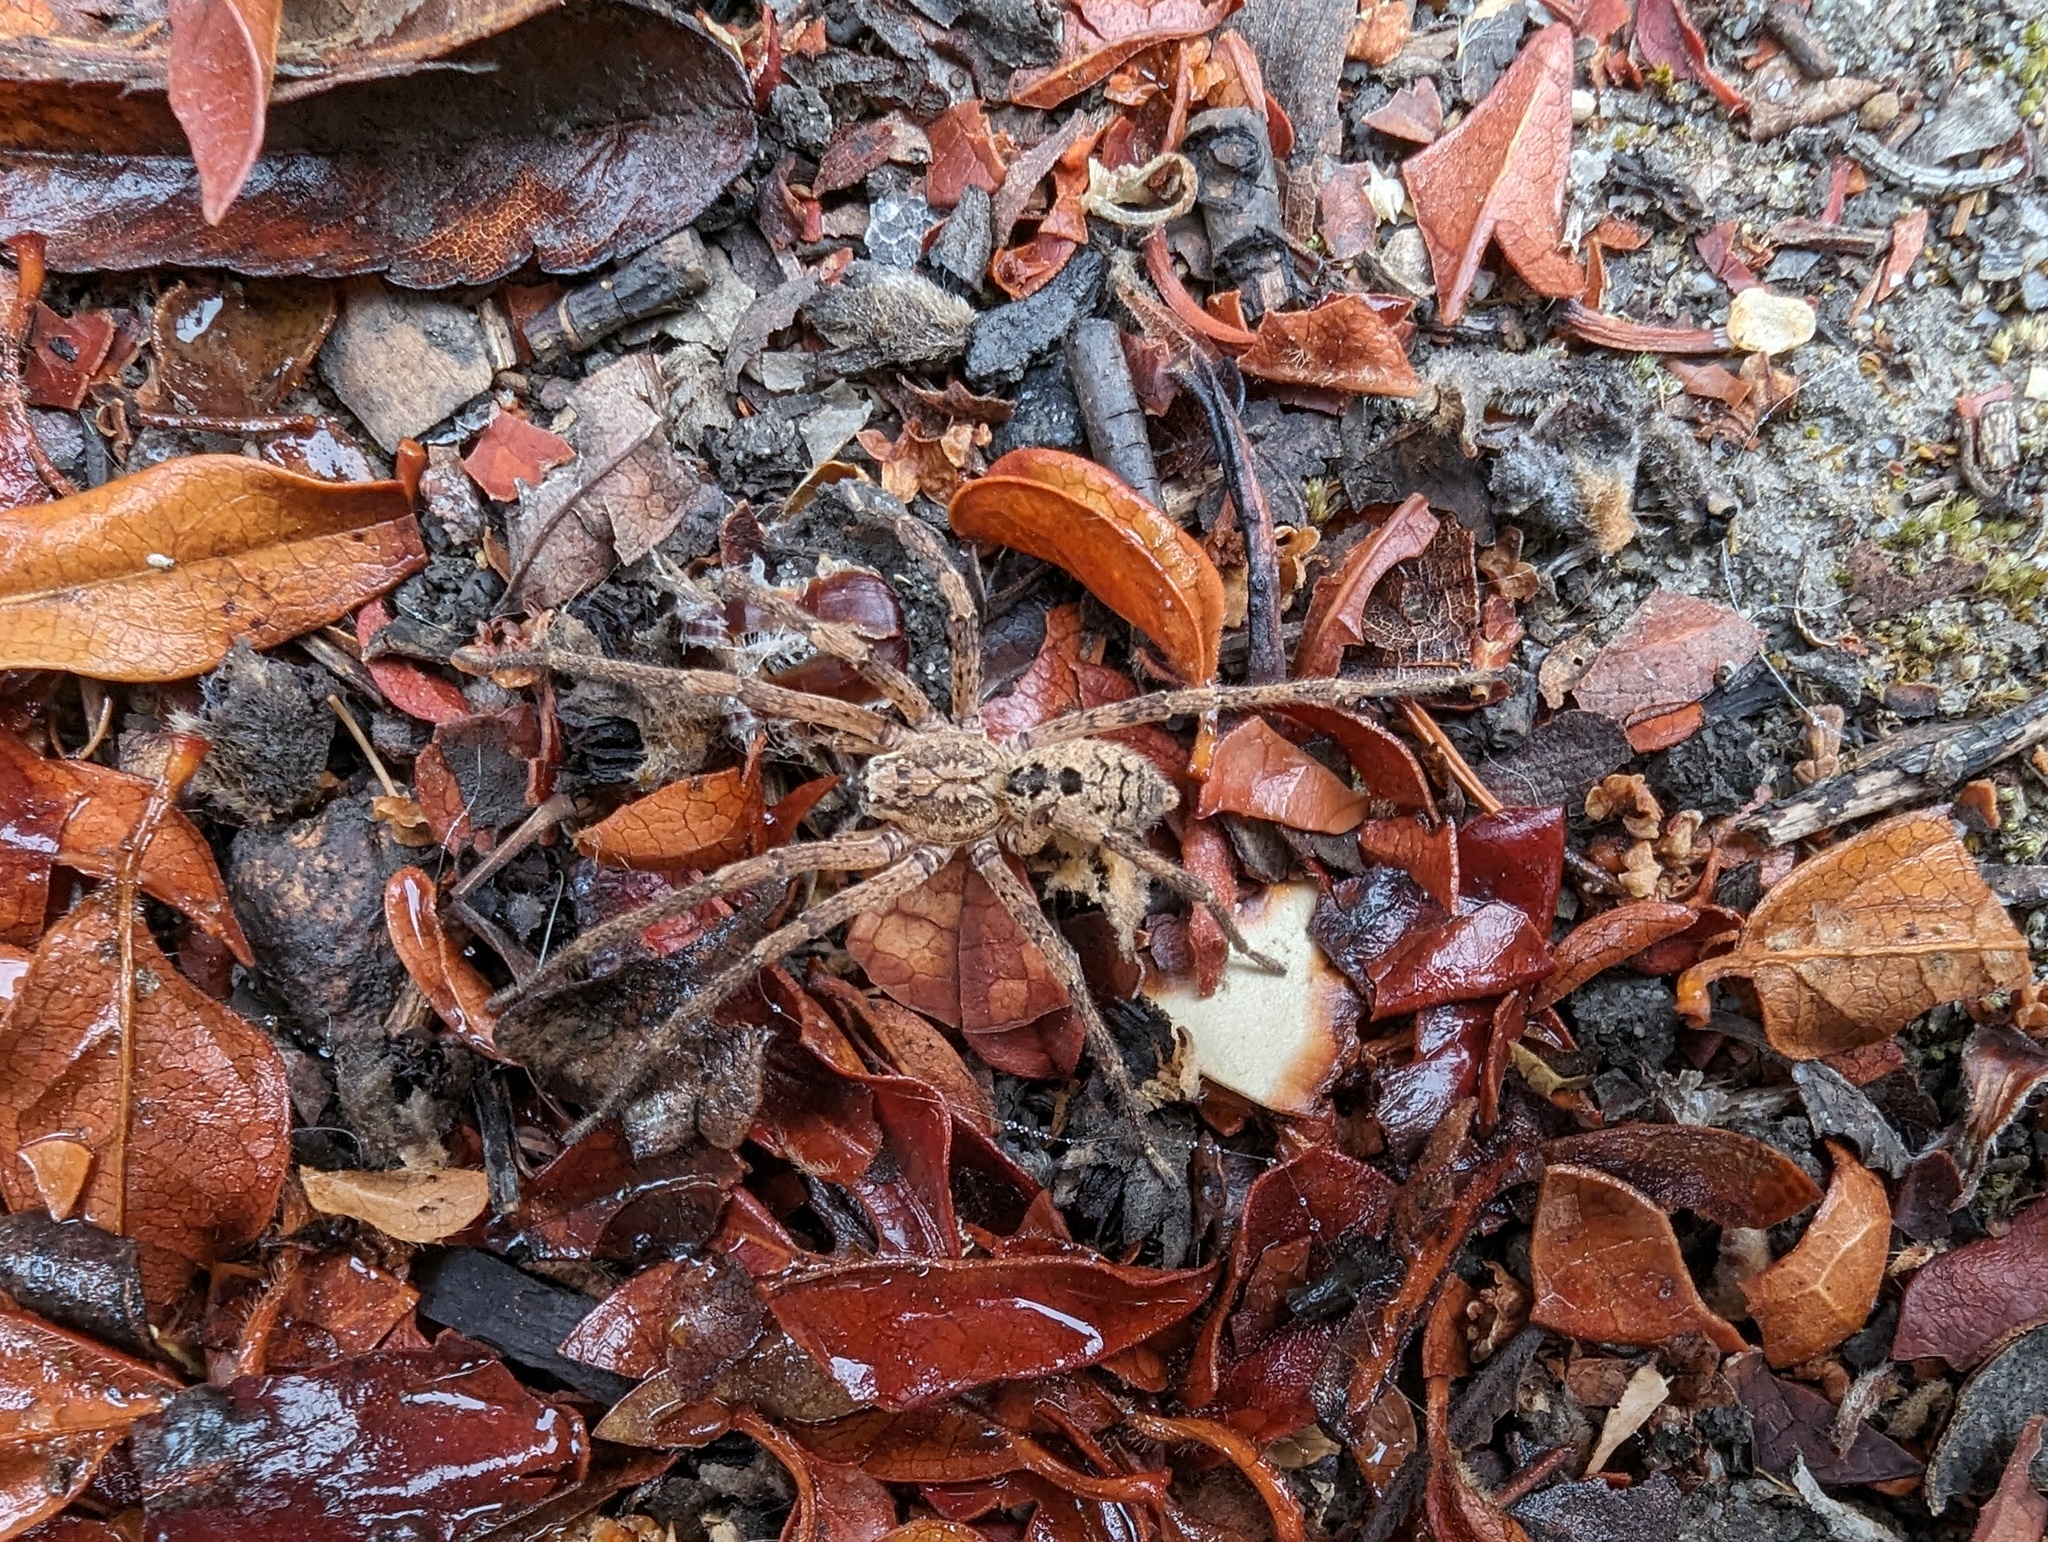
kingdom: Animalia
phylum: Arthropoda
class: Arachnida
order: Araneae
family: Zoropsidae
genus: Zoropsis
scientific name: Zoropsis spinimana
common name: Zoropsid spider
